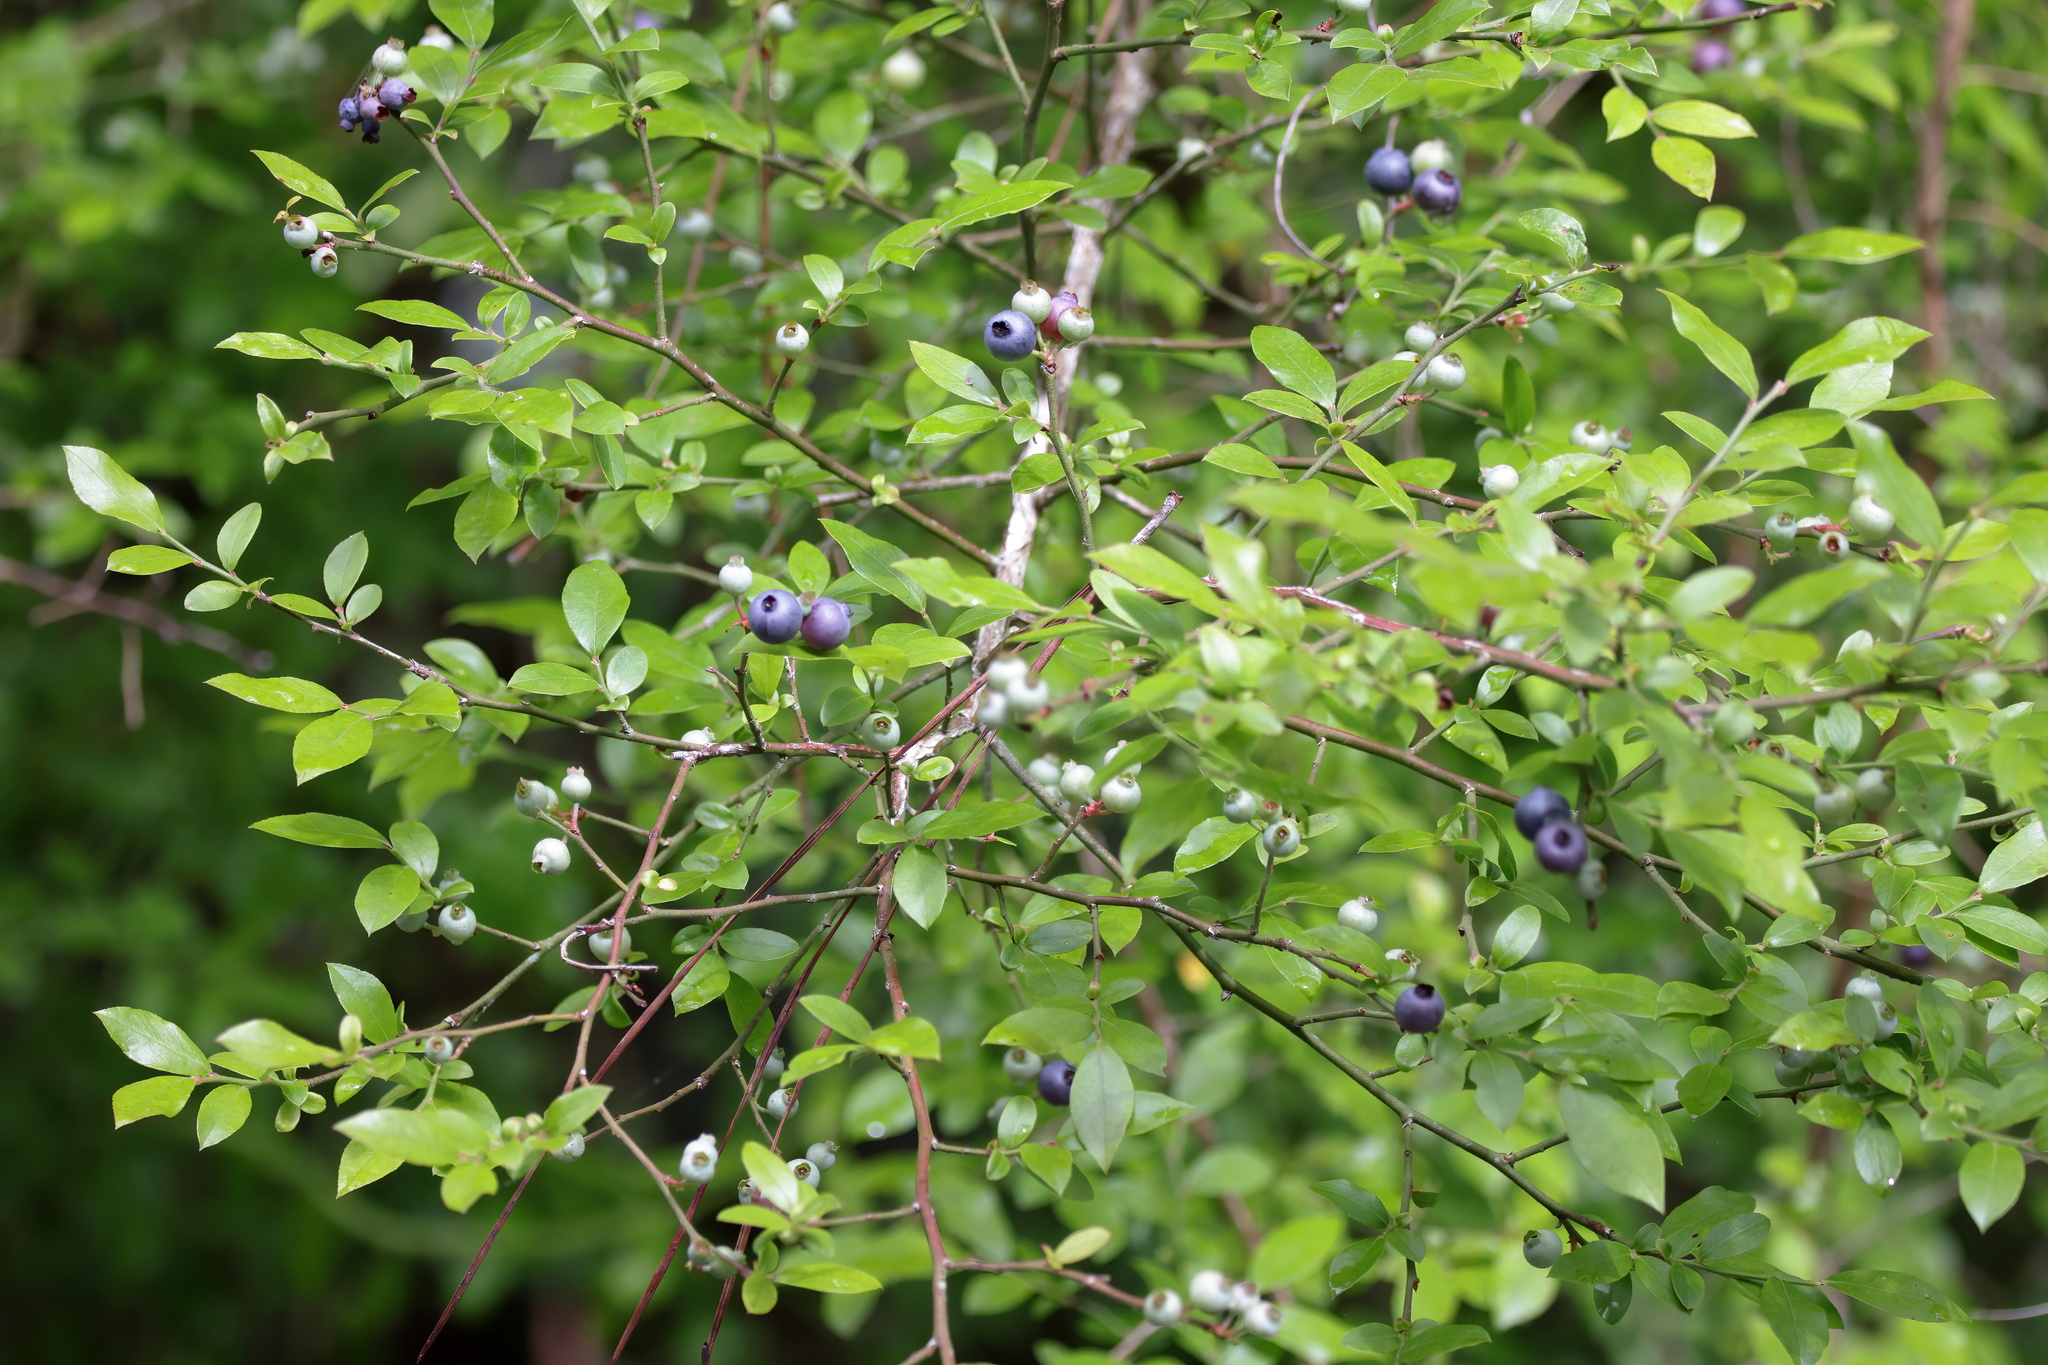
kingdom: Plantae
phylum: Tracheophyta
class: Magnoliopsida
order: Ericales
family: Ericaceae
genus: Vaccinium
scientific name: Vaccinium corymbosum
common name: Blueberry
